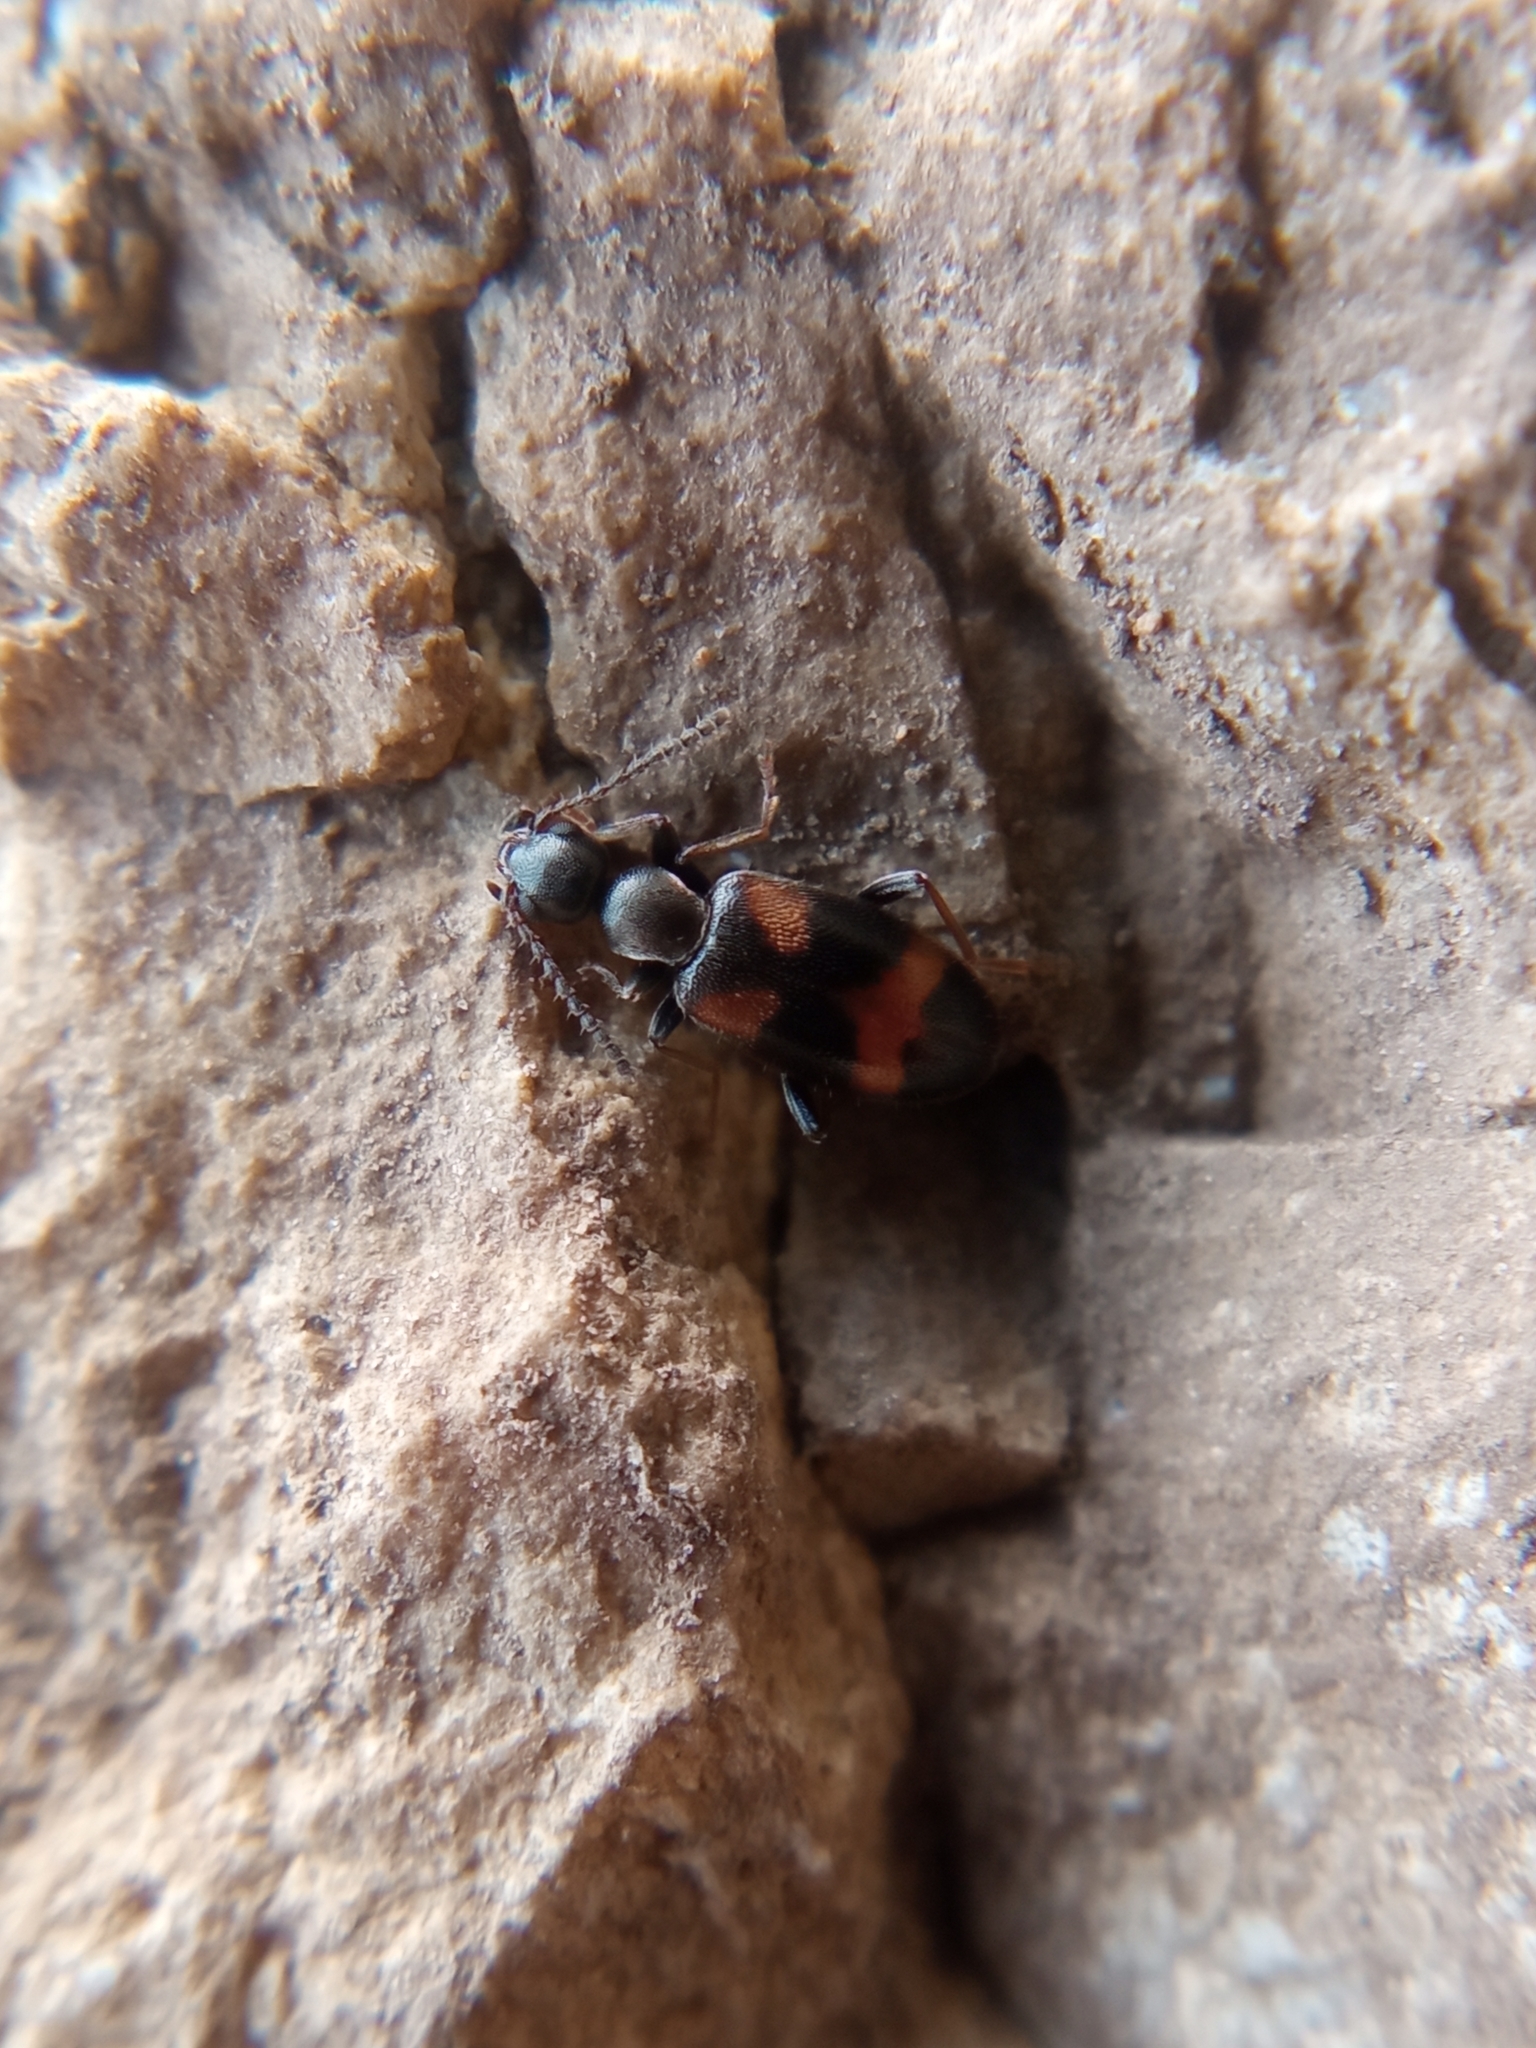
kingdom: Animalia
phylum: Arthropoda
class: Insecta
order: Coleoptera
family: Anthicidae
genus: Anthicus
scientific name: Anthicus antherinus
